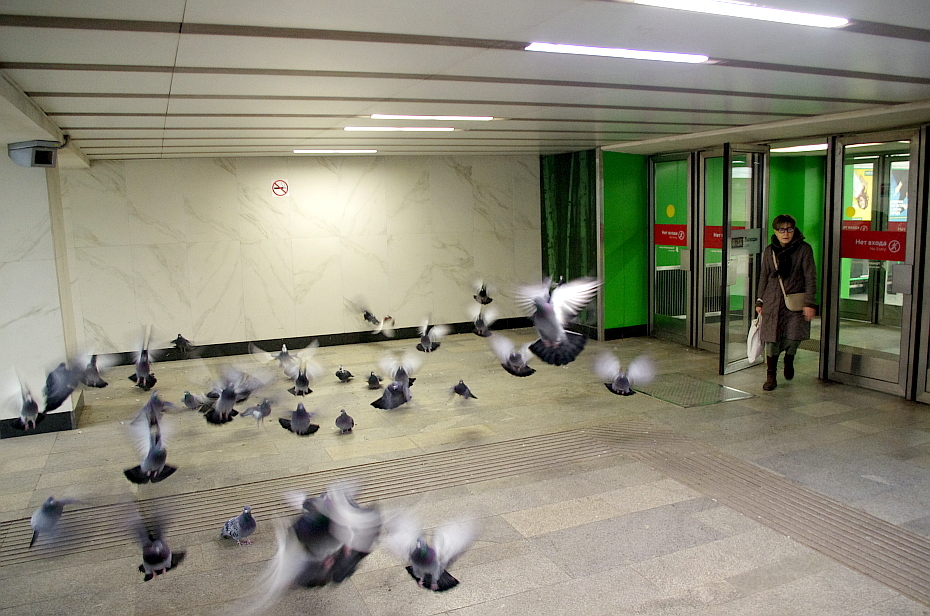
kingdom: Animalia
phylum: Chordata
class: Aves
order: Columbiformes
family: Columbidae
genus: Columba
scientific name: Columba livia
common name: Rock pigeon
